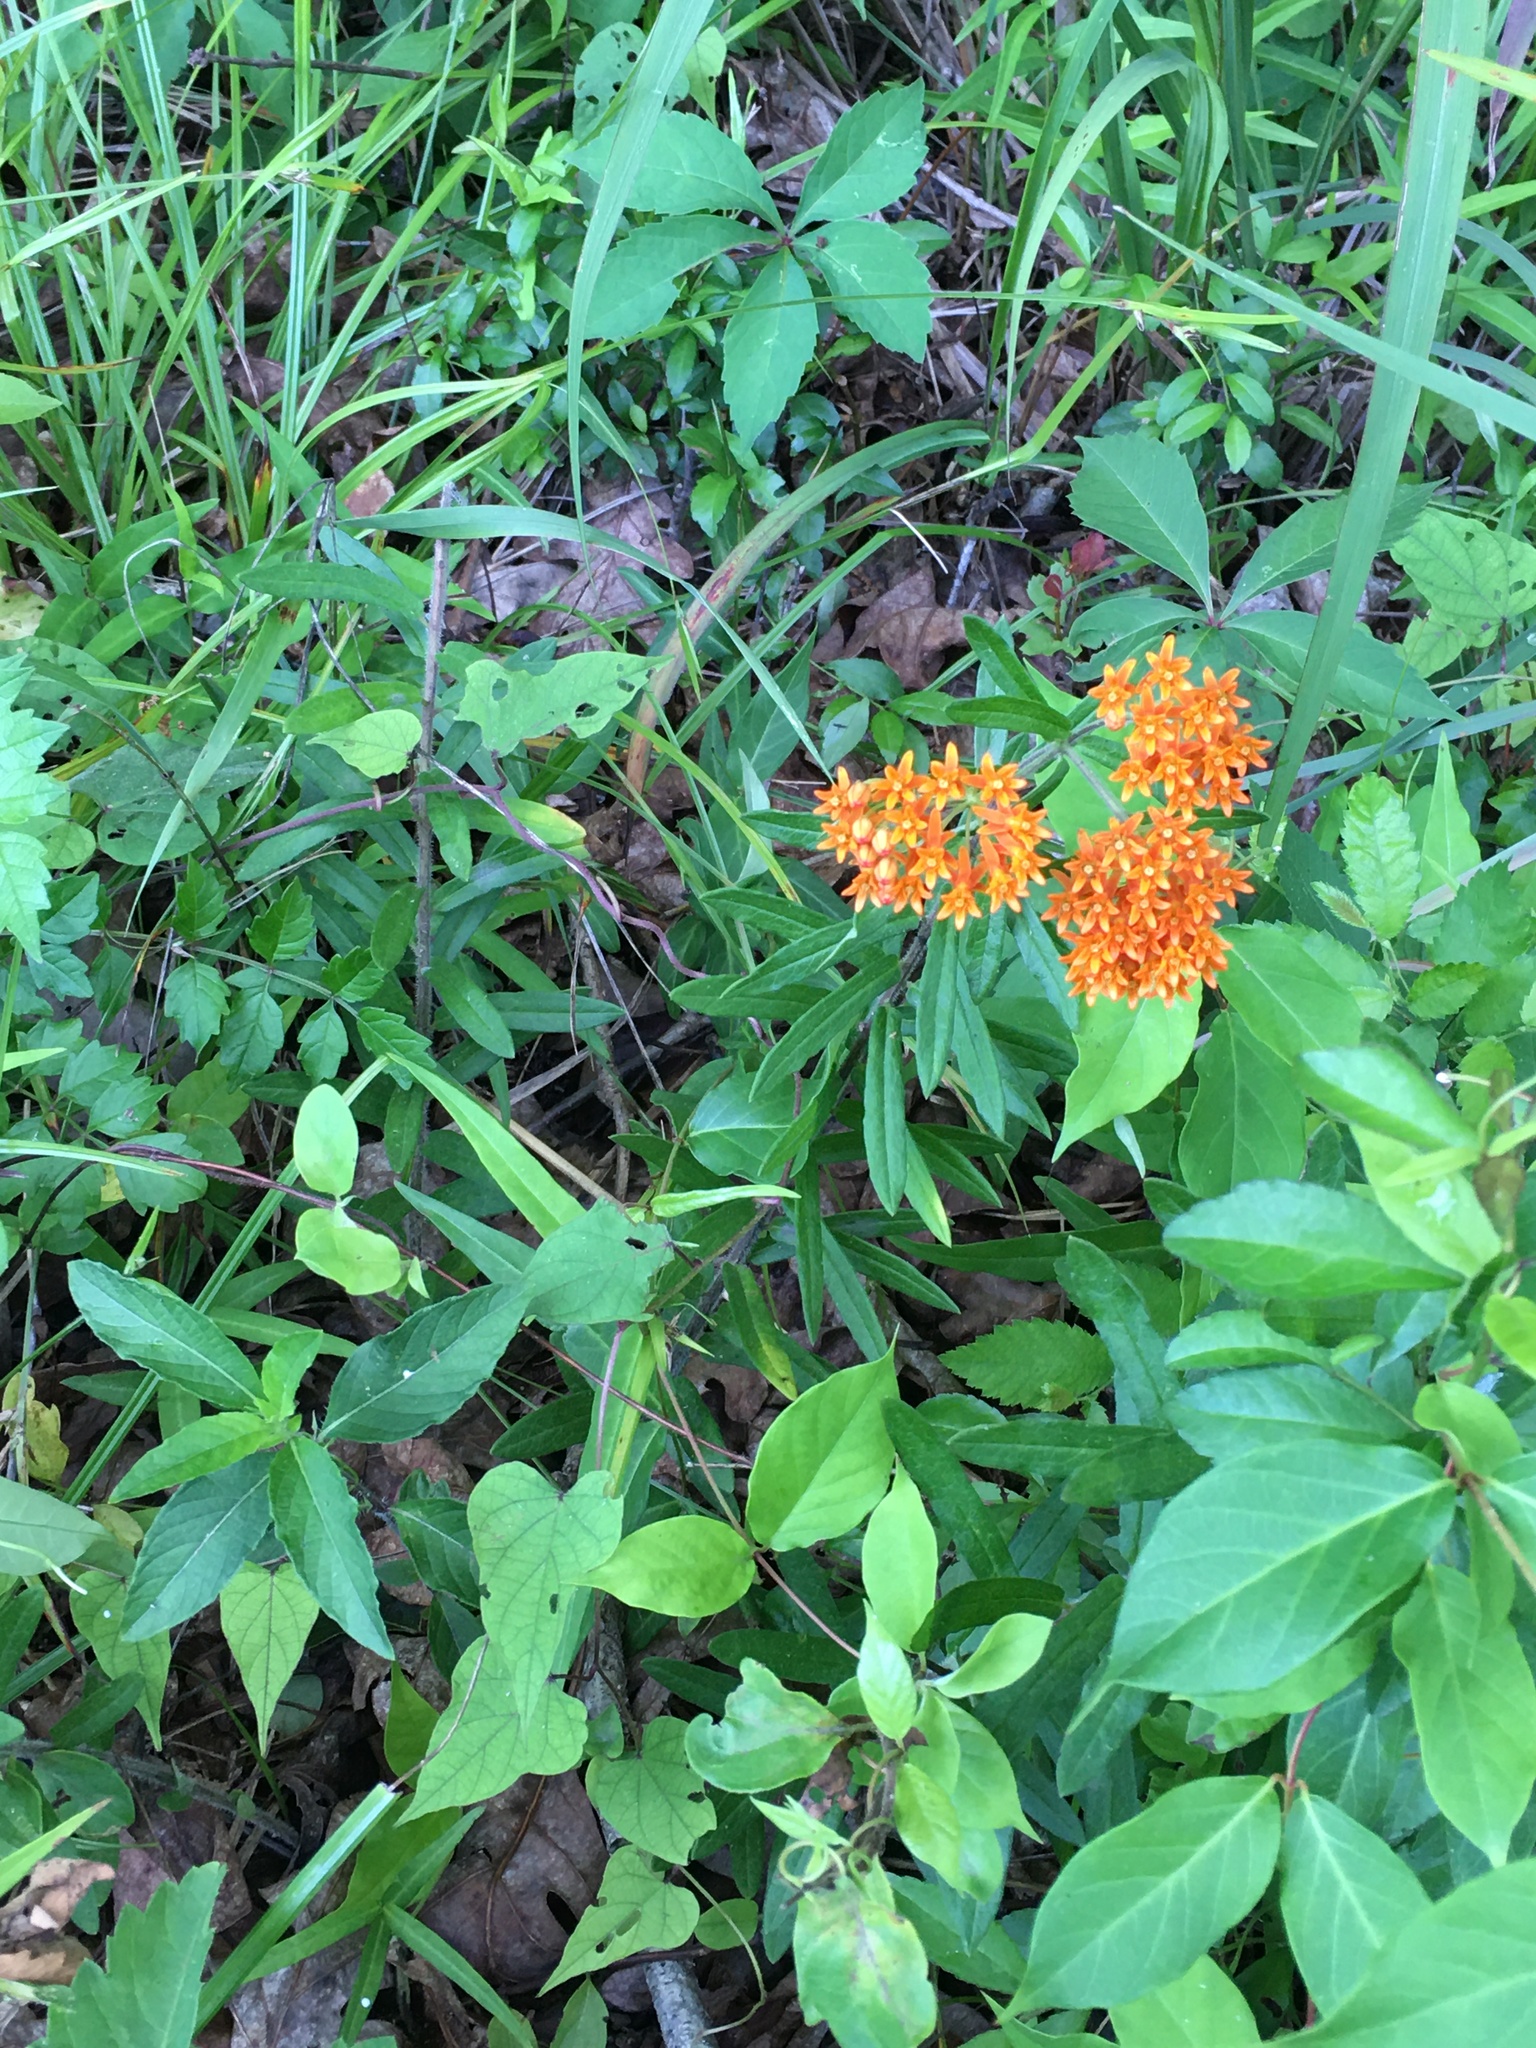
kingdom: Plantae
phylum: Tracheophyta
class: Magnoliopsida
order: Gentianales
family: Apocynaceae
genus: Asclepias
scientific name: Asclepias tuberosa
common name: Butterfly milkweed
